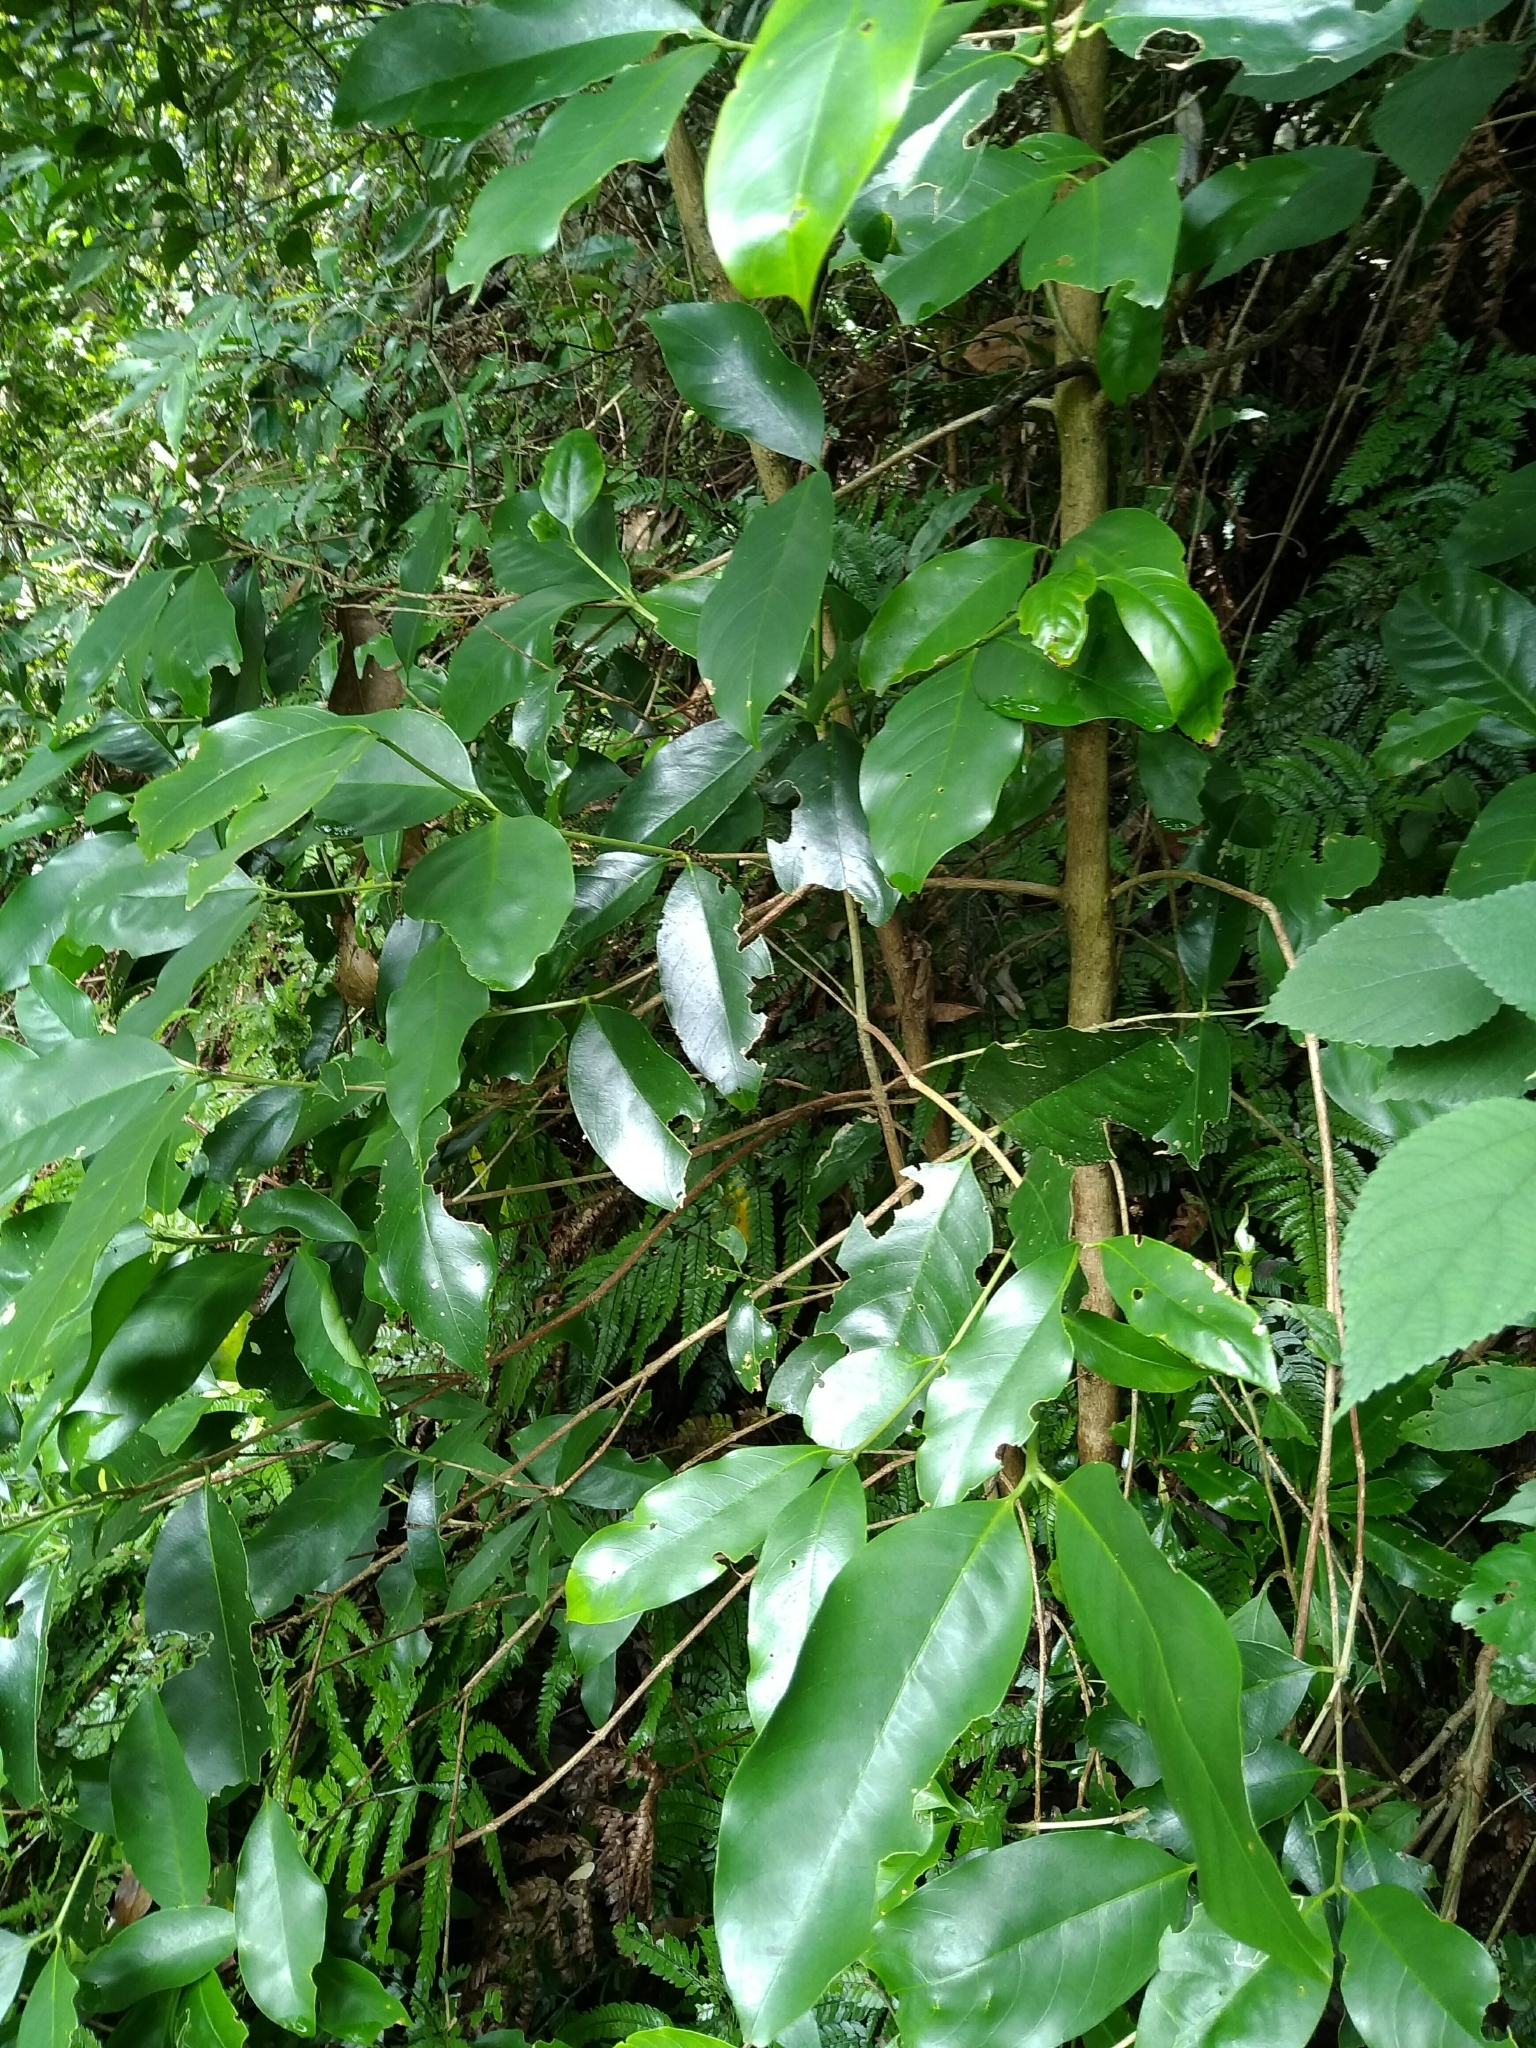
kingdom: Plantae
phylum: Tracheophyta
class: Magnoliopsida
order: Gentianales
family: Rubiaceae
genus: Diplospora
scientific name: Diplospora dubia
